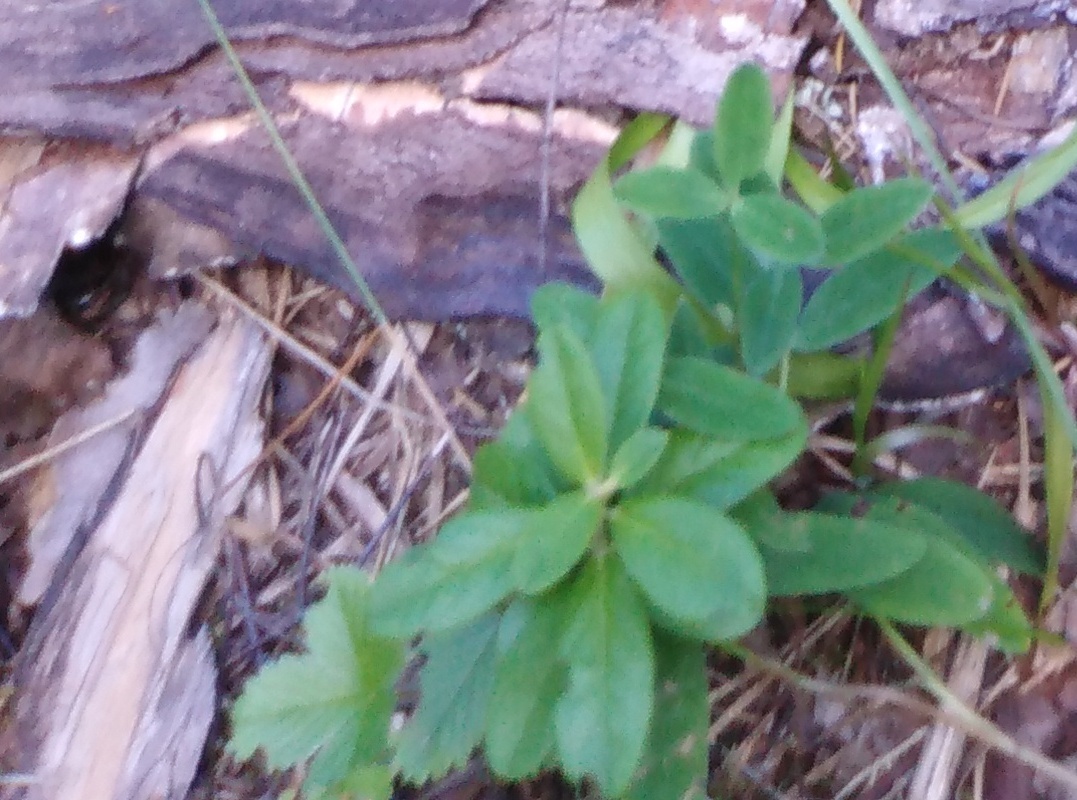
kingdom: Plantae
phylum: Tracheophyta
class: Magnoliopsida
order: Ericales
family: Ericaceae
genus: Vaccinium
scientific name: Vaccinium vitis-idaea
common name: Cowberry
